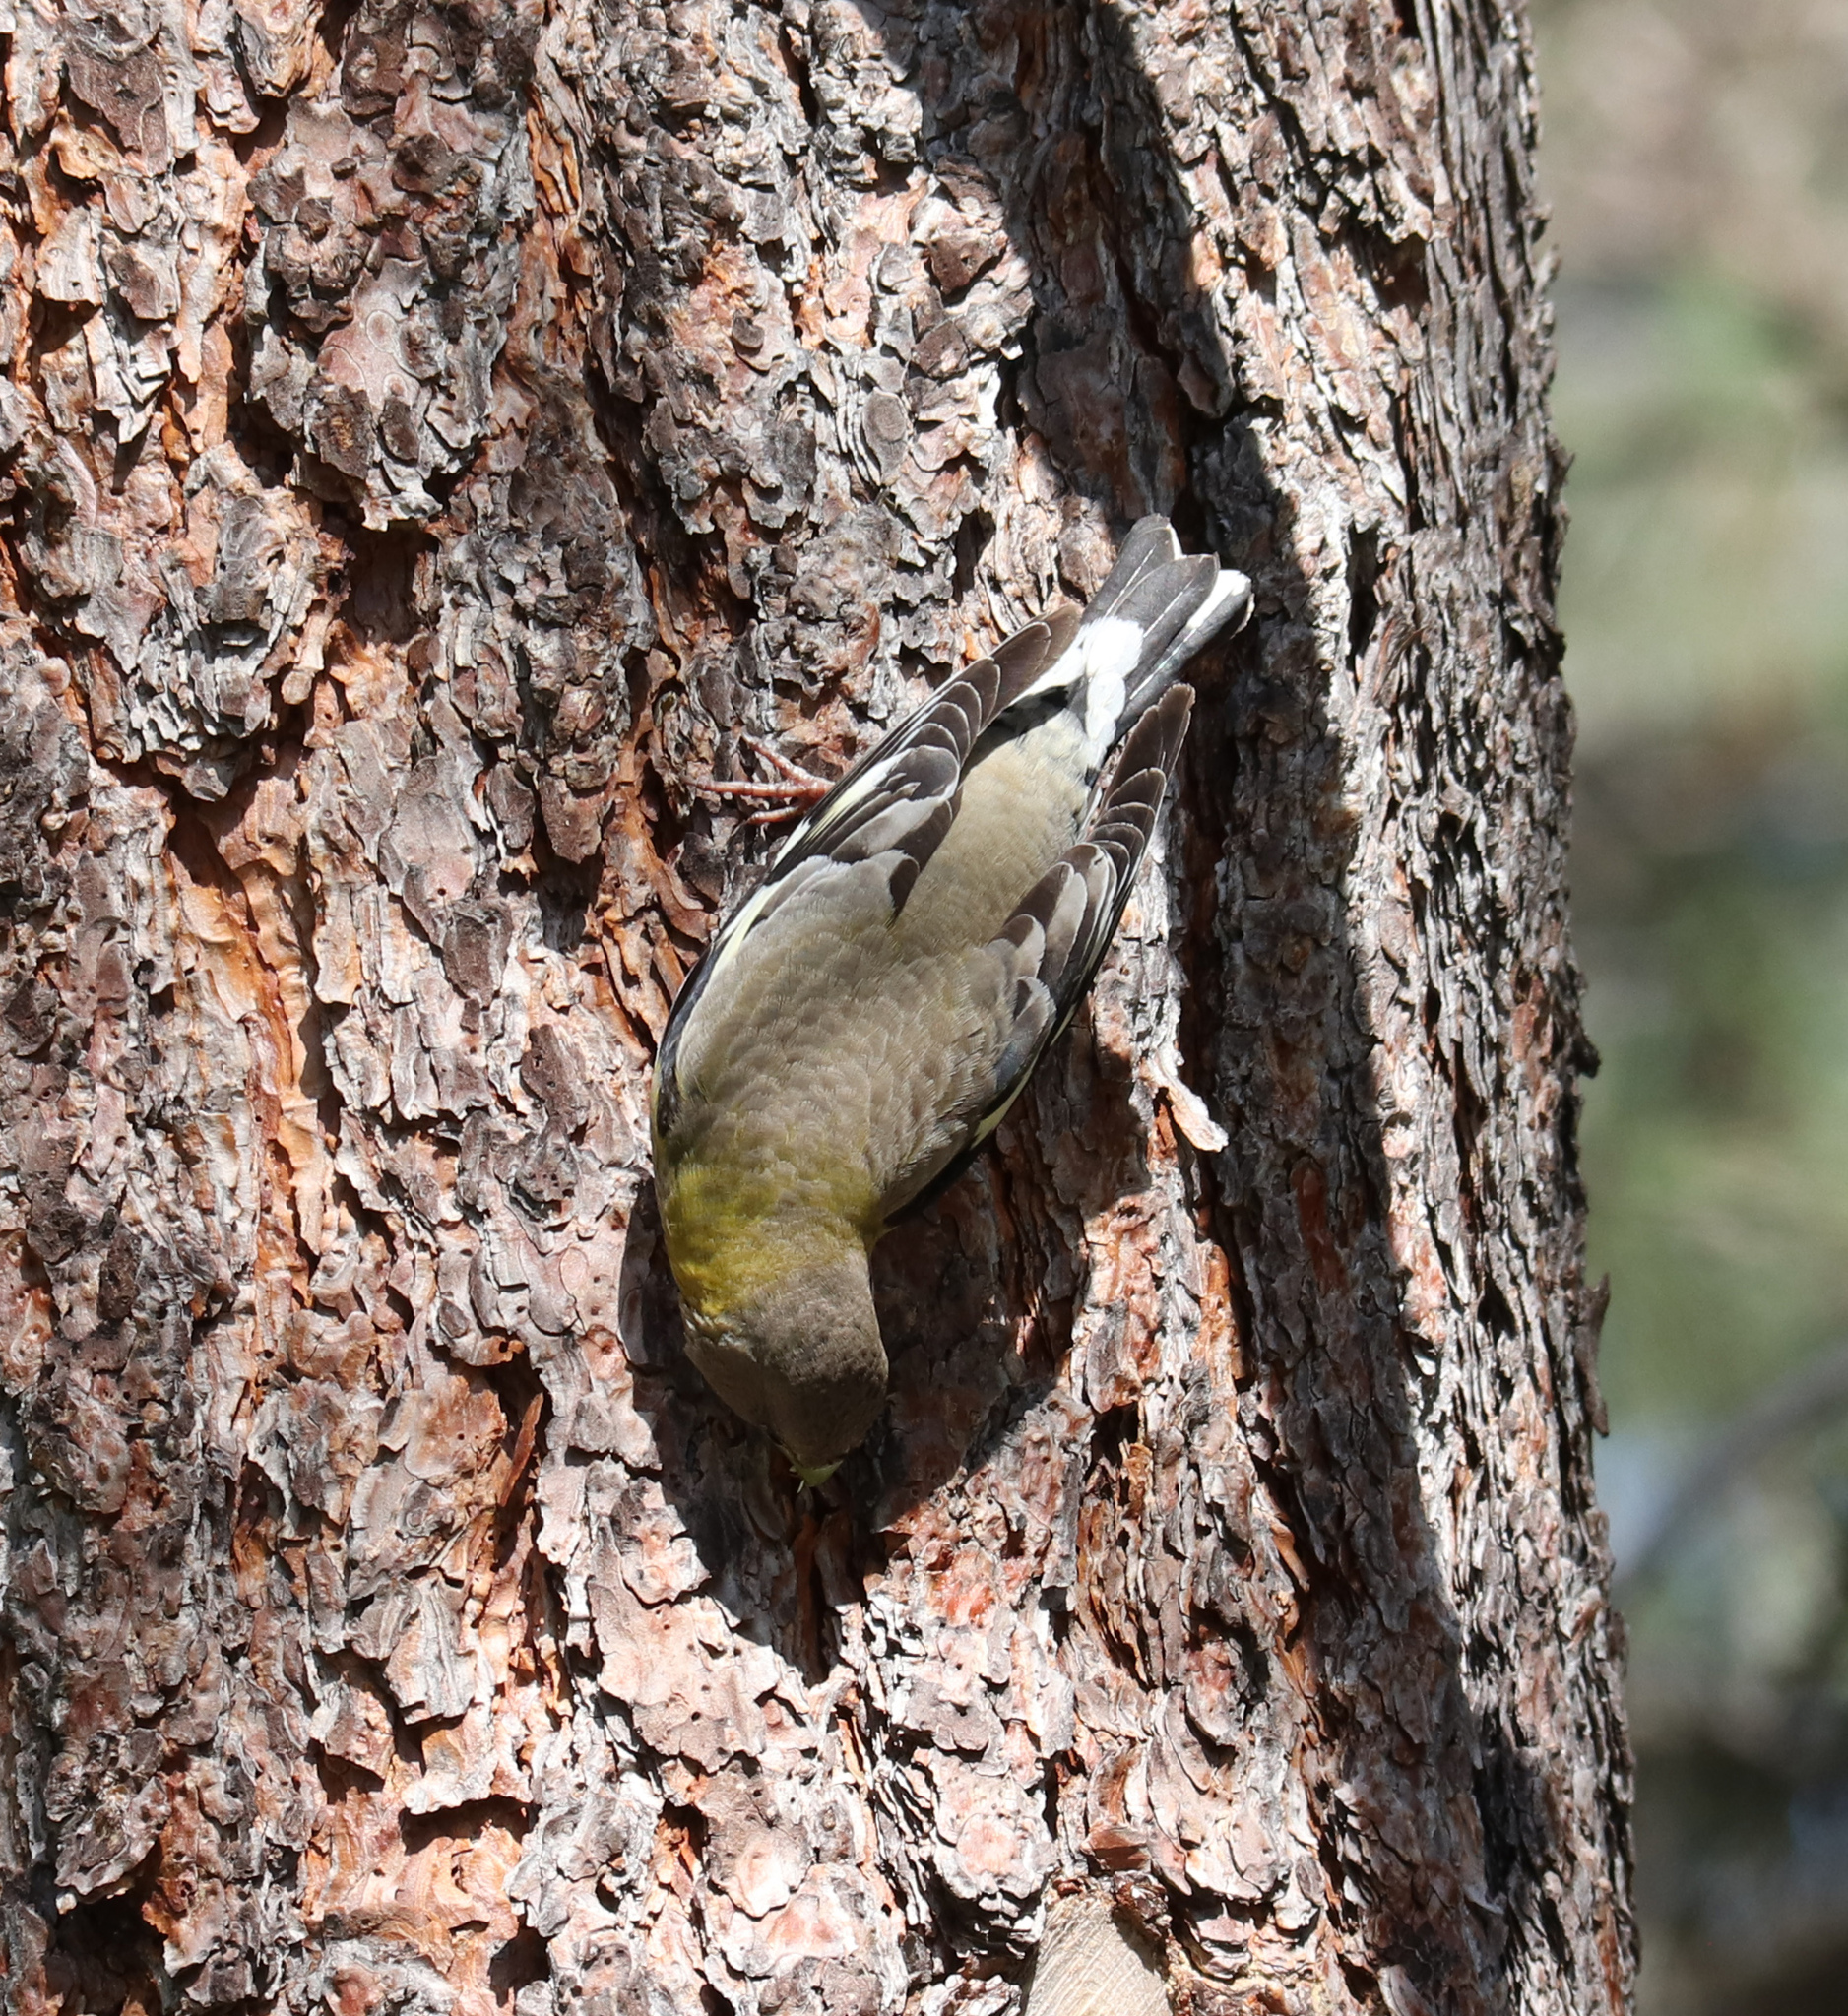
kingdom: Animalia
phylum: Chordata
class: Aves
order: Passeriformes
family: Fringillidae
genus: Hesperiphona
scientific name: Hesperiphona vespertina
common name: Evening grosbeak
